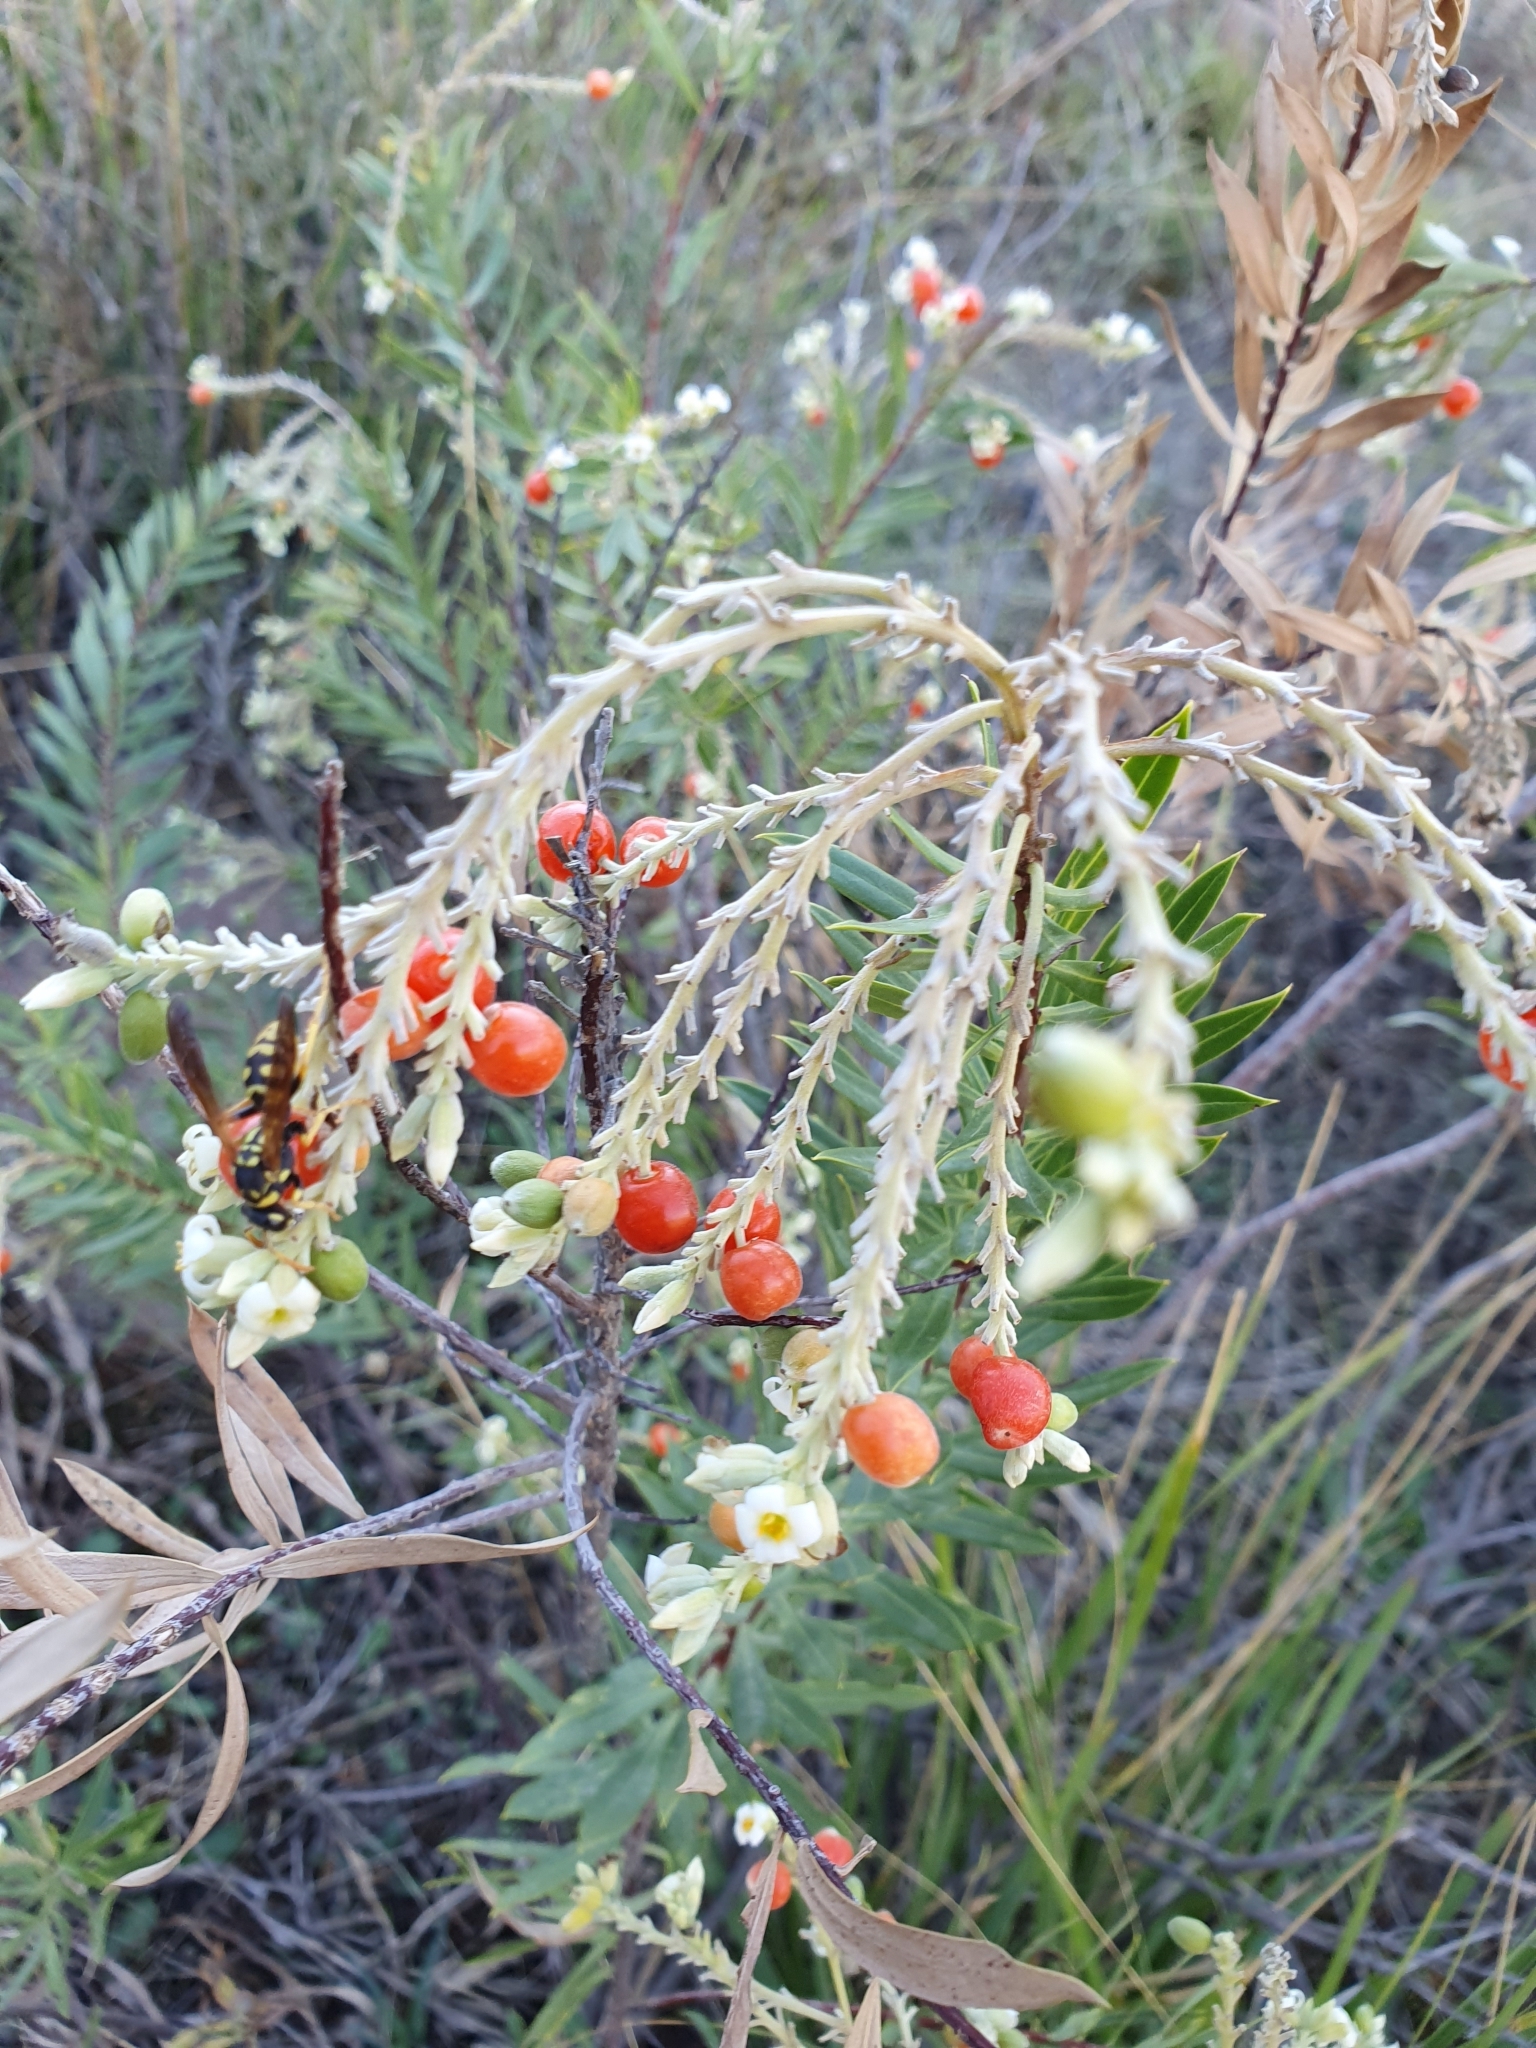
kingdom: Plantae
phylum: Tracheophyta
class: Magnoliopsida
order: Malvales
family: Thymelaeaceae
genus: Daphne
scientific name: Daphne gnidium
